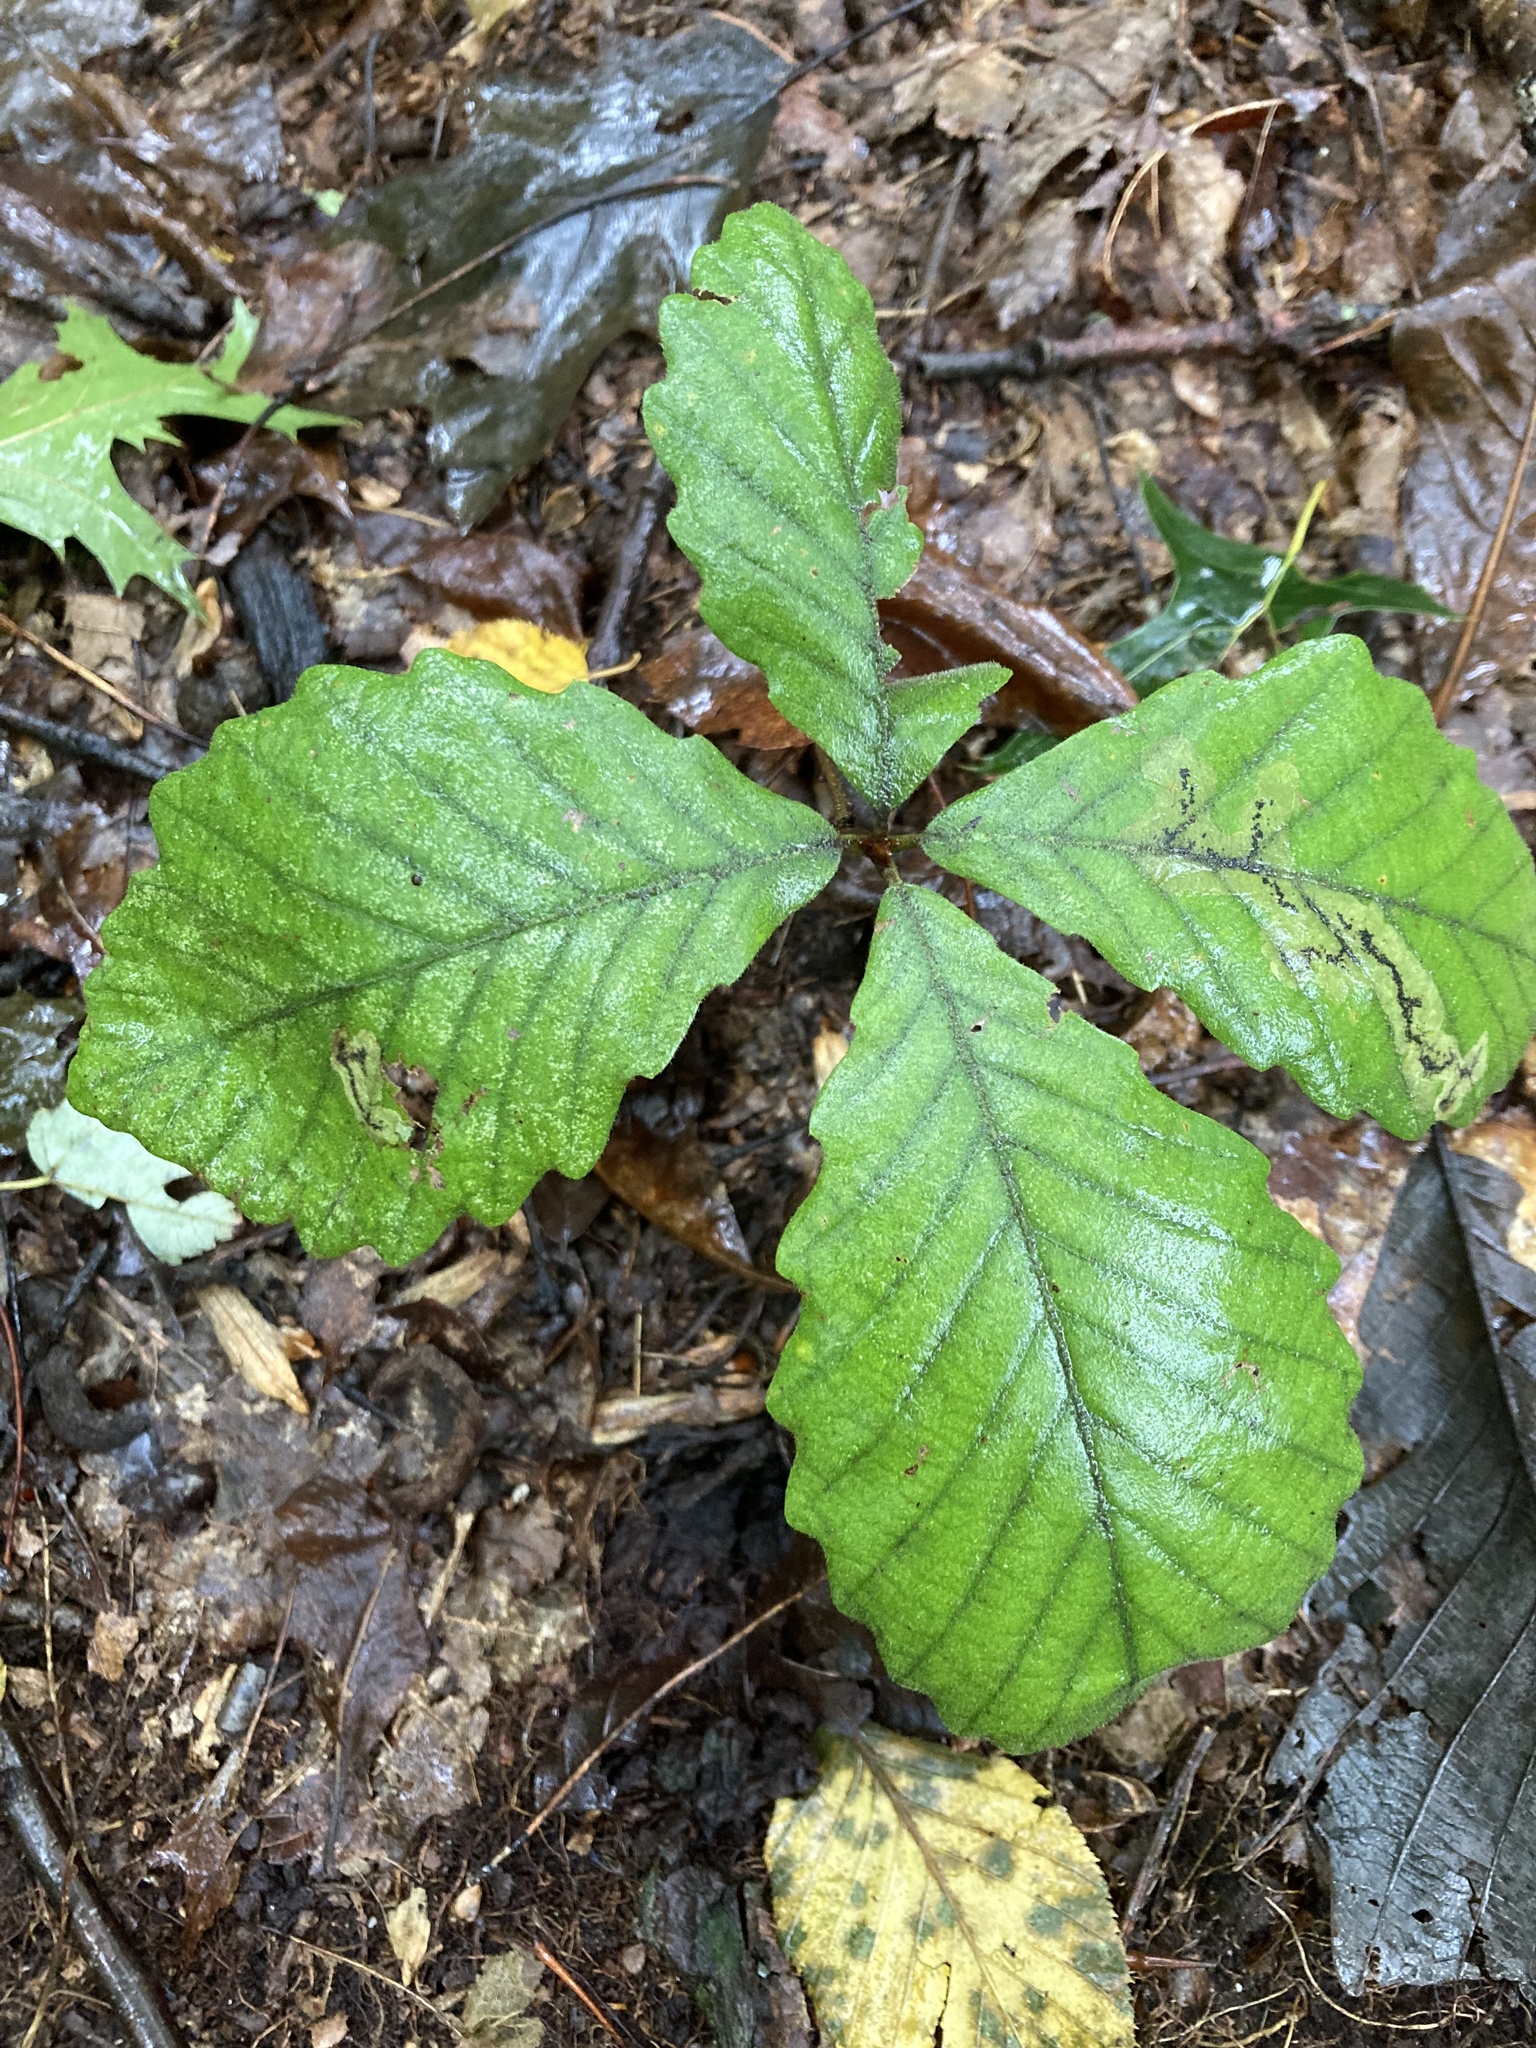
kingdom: Plantae
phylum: Tracheophyta
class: Magnoliopsida
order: Fagales
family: Fagaceae
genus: Quercus
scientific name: Quercus montana
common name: Chestnut oak
